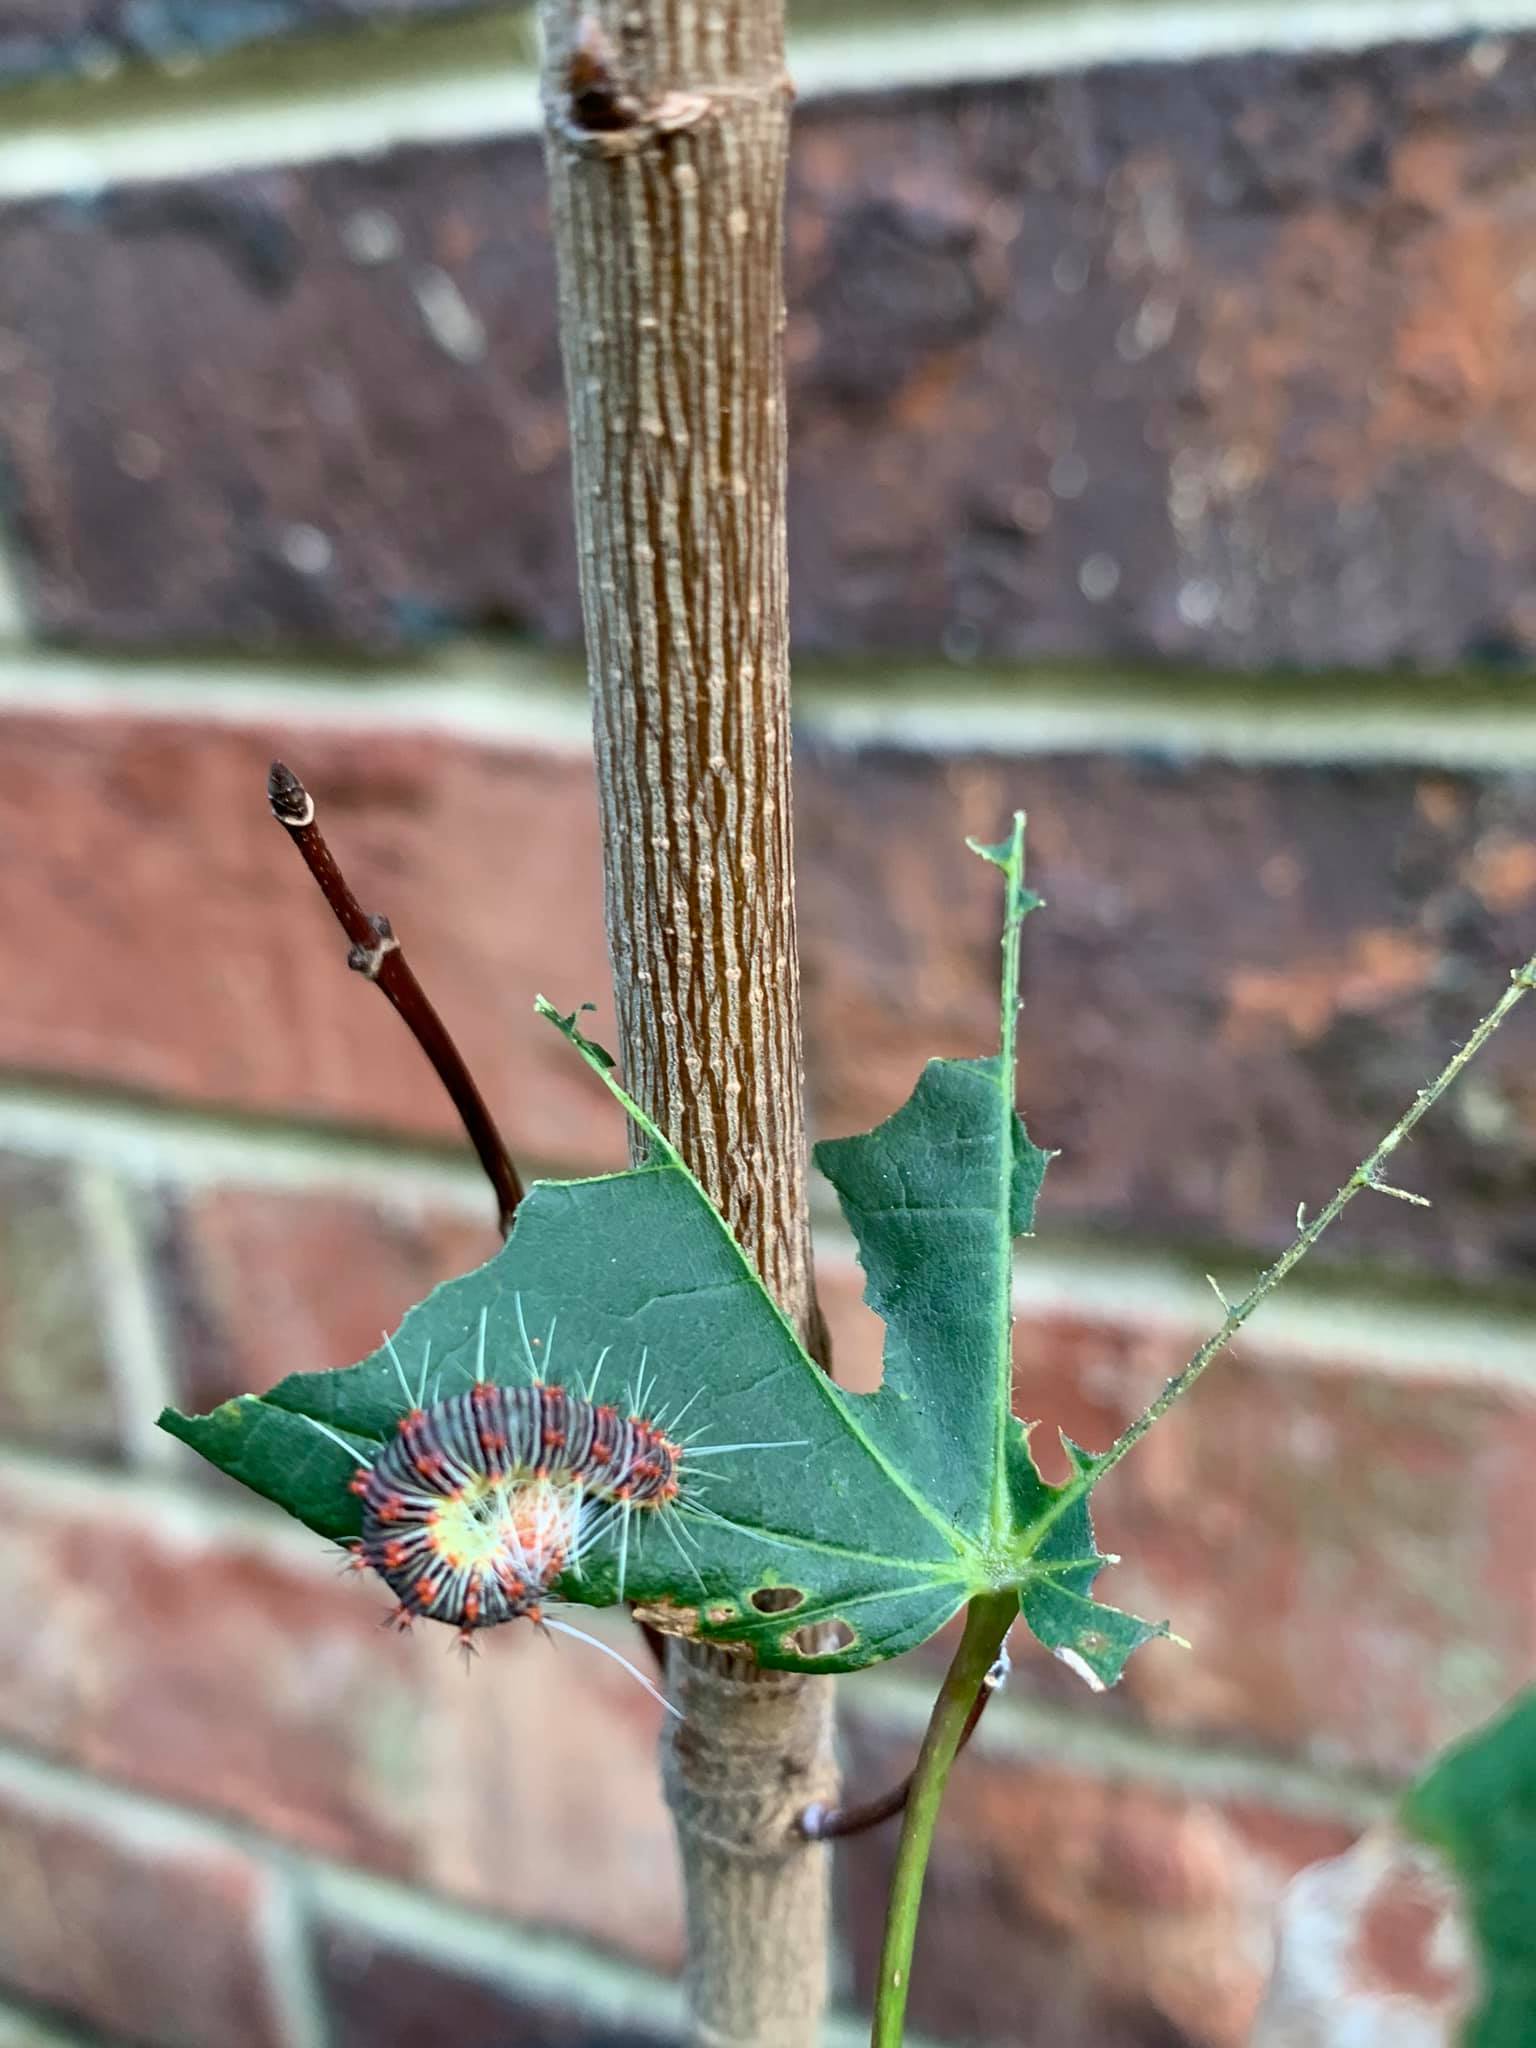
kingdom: Animalia
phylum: Arthropoda
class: Insecta
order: Lepidoptera
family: Noctuidae
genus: Acronicta
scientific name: Acronicta retardata
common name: Maple dagger
